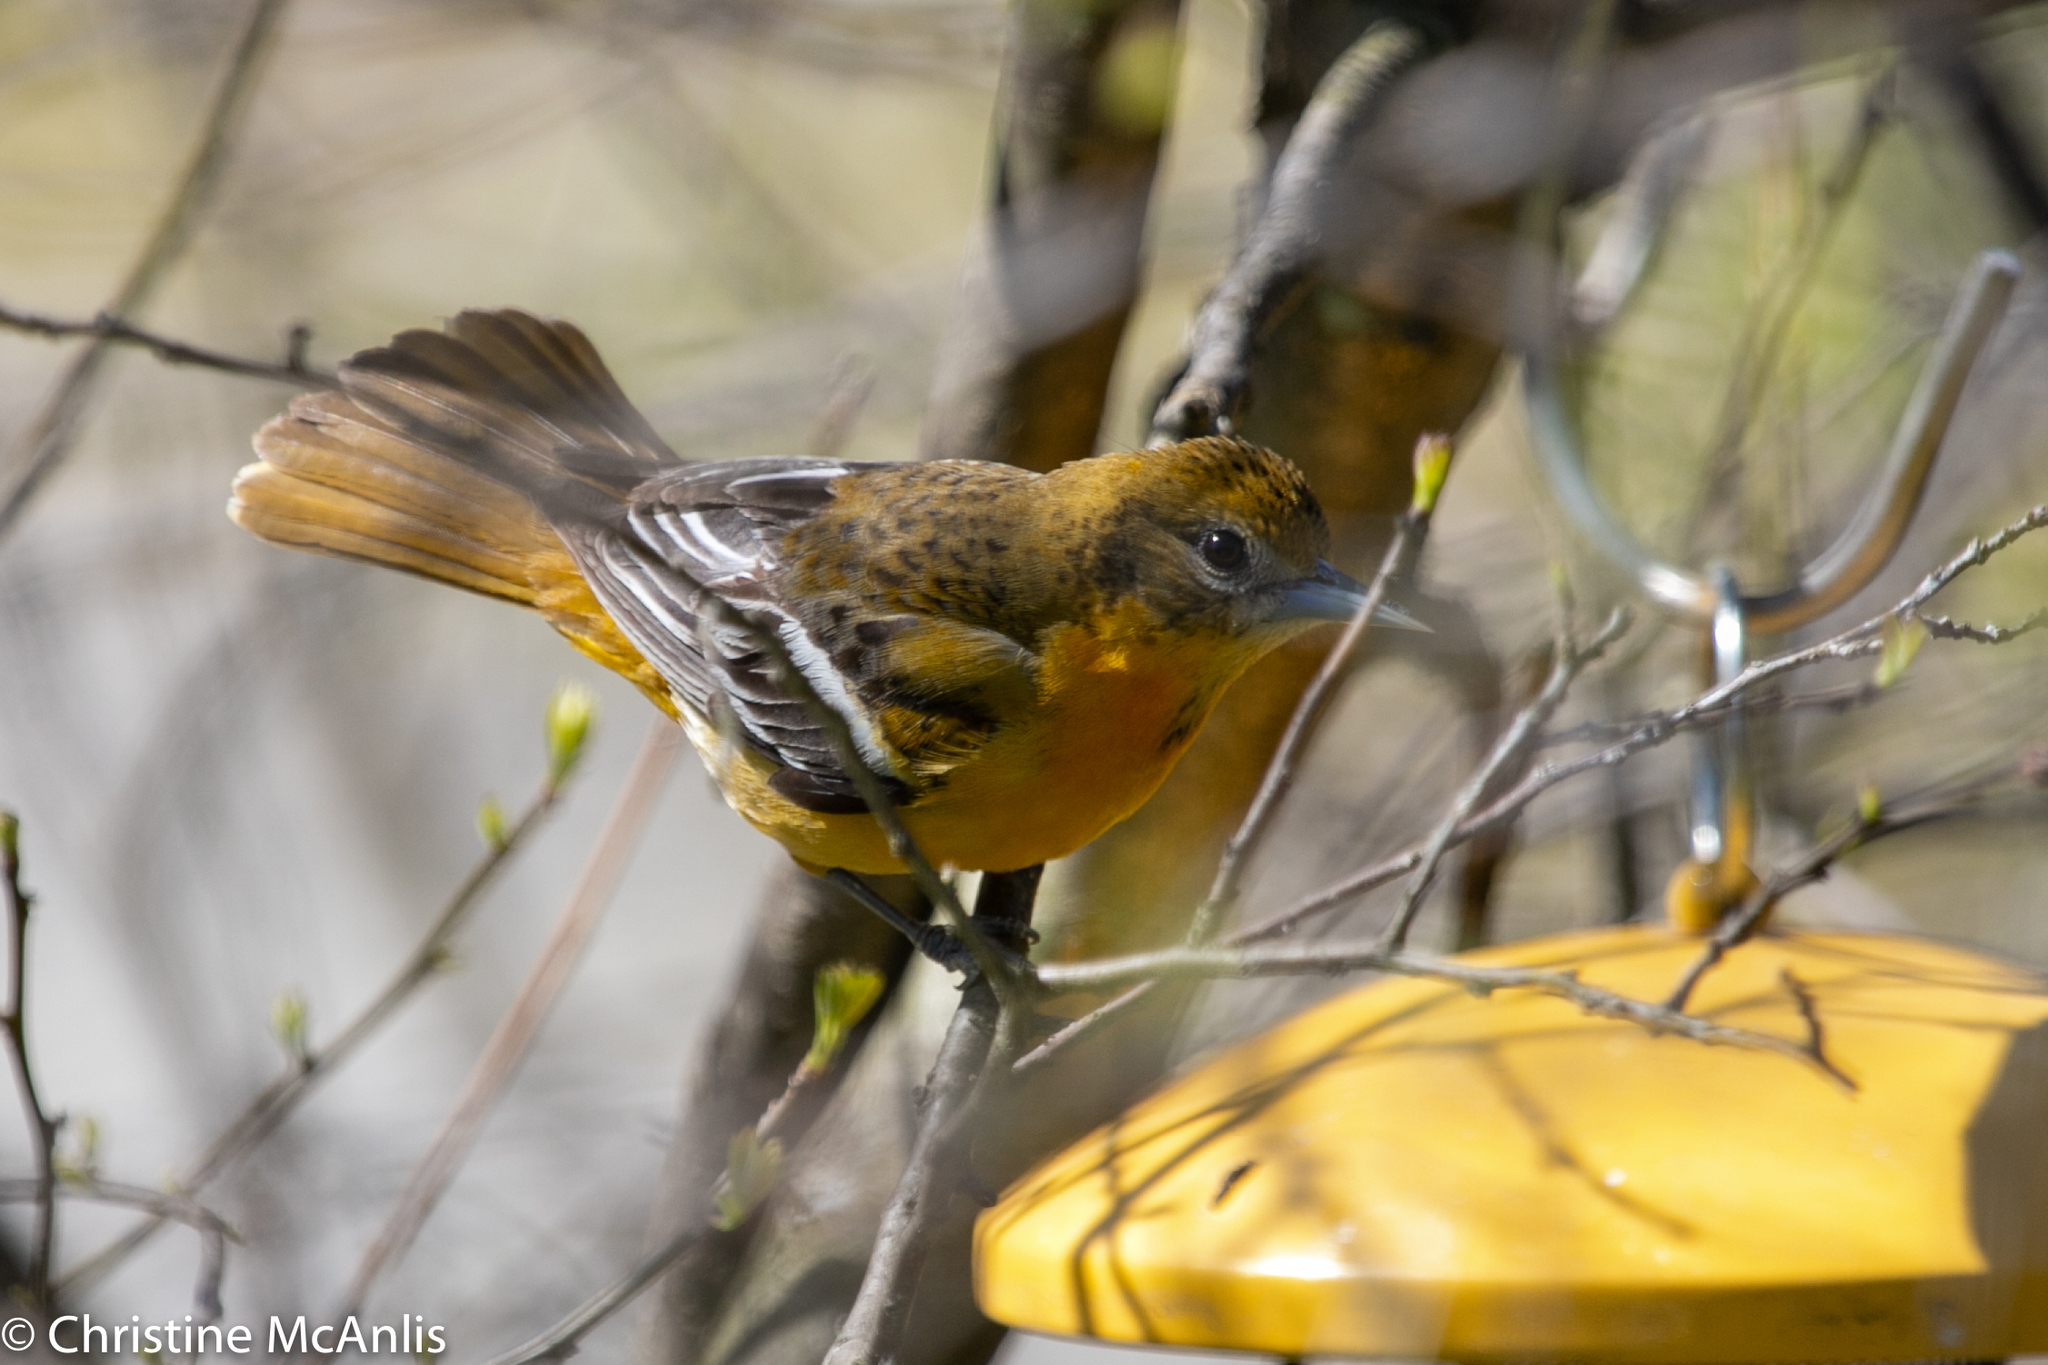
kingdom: Animalia
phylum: Chordata
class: Aves
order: Passeriformes
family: Icteridae
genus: Icterus
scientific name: Icterus galbula
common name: Baltimore oriole
